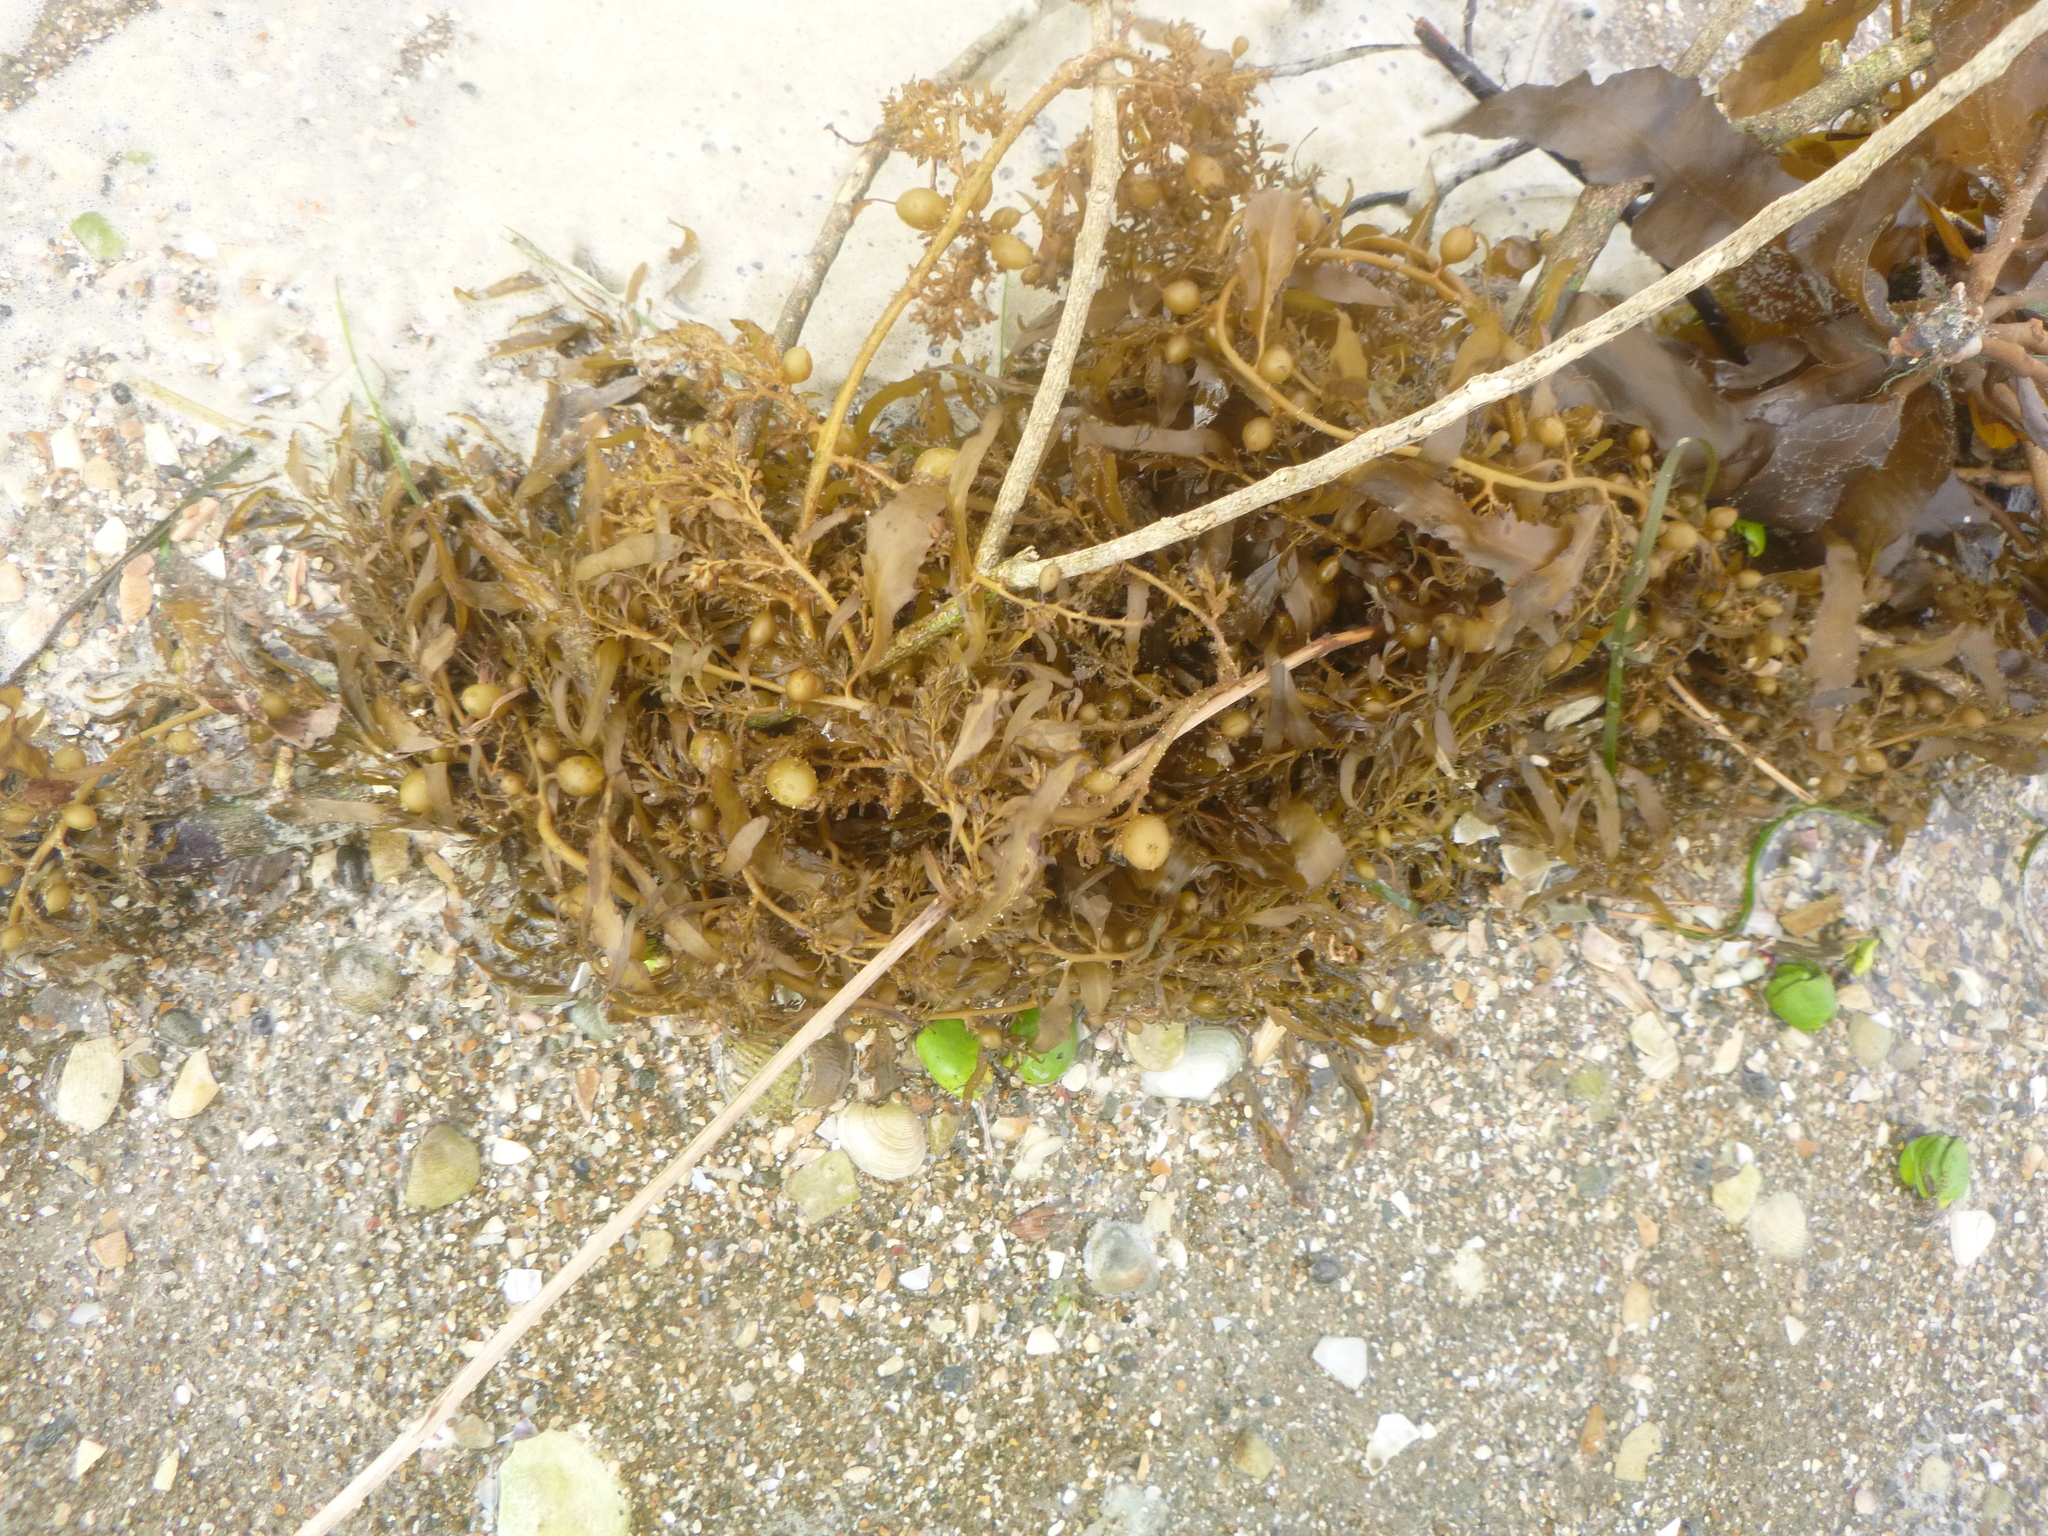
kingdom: Chromista
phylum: Ochrophyta
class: Phaeophyceae
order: Fucales
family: Sargassaceae
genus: Sargassum
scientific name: Sargassum sinclairii
